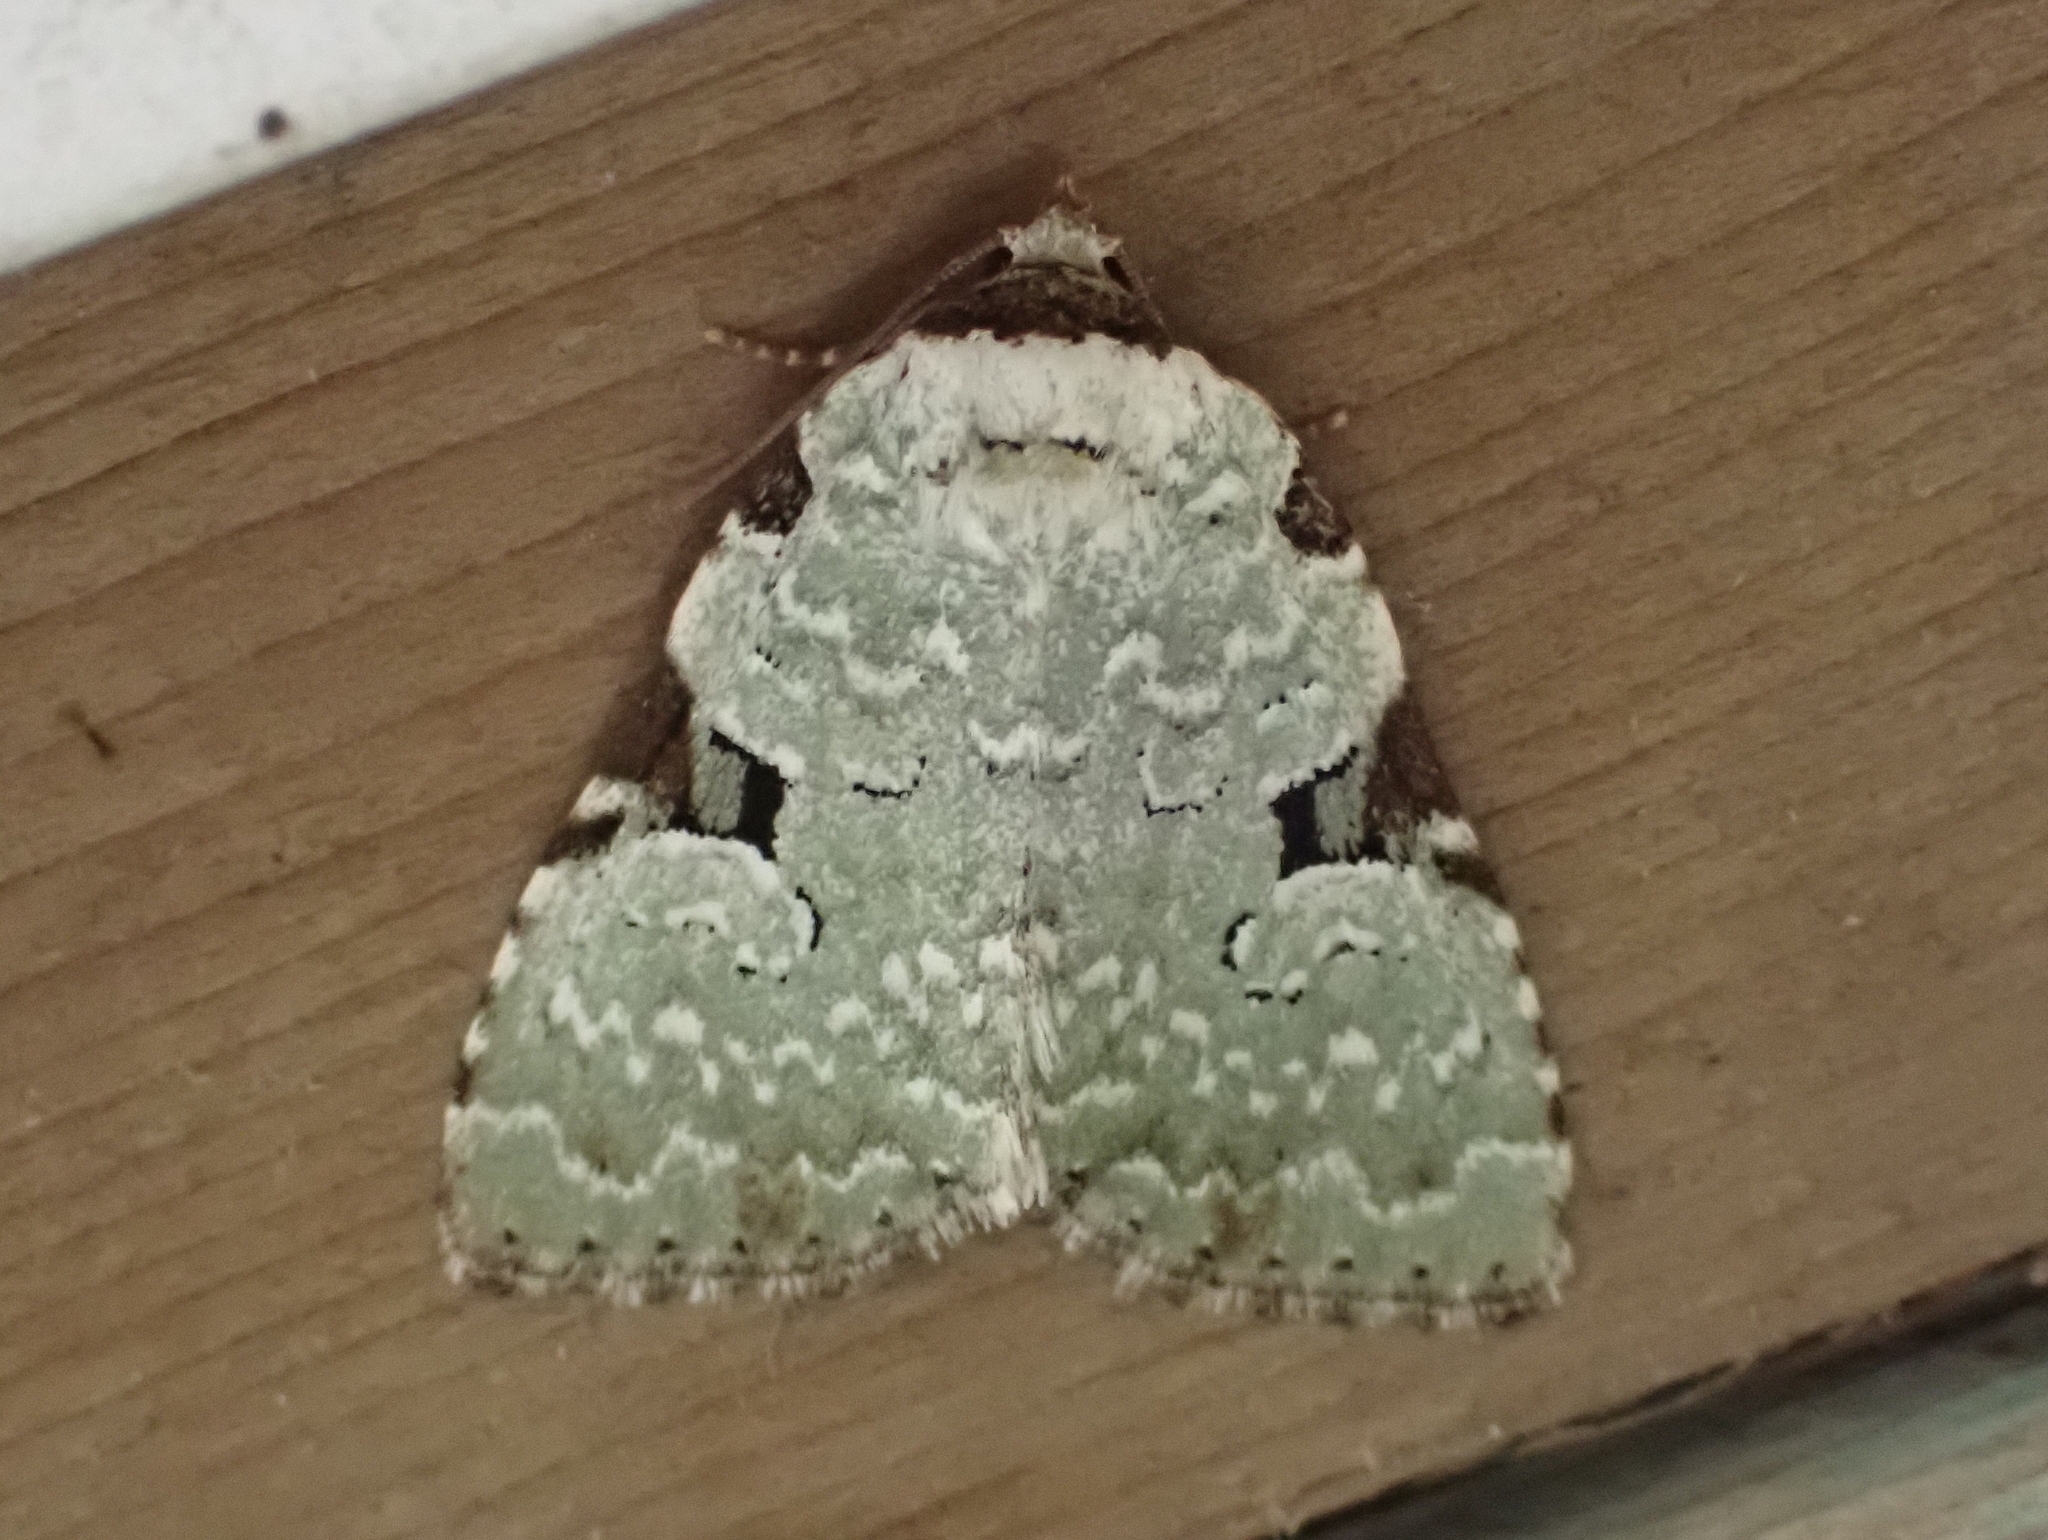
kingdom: Animalia
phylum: Arthropoda
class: Insecta
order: Lepidoptera
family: Noctuidae
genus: Leuconycta
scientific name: Leuconycta diphteroides
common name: Green leuconycta moth
